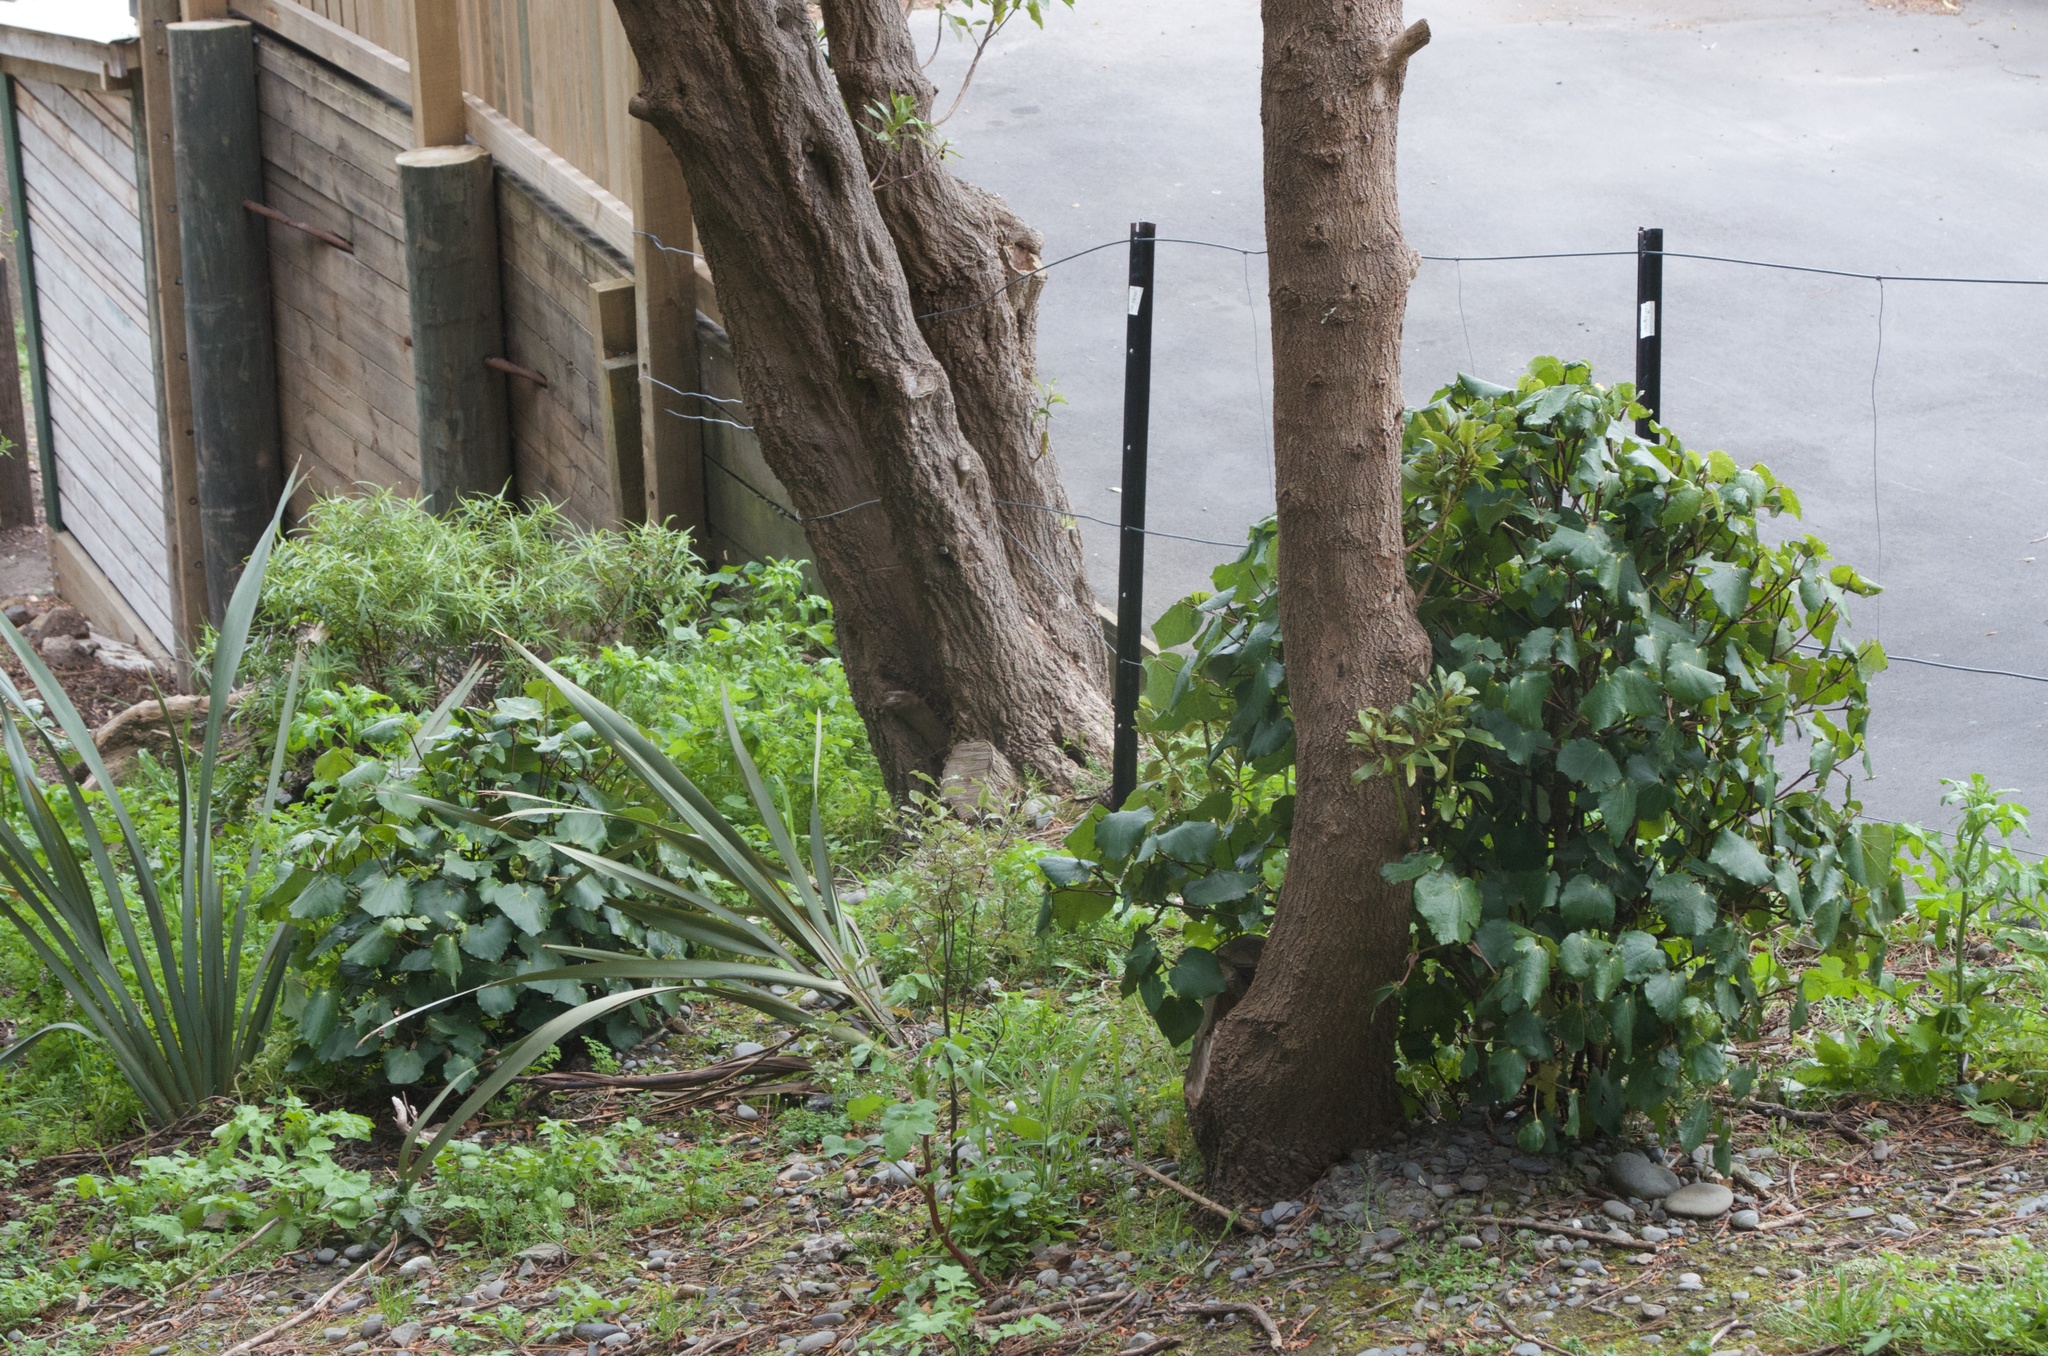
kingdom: Plantae
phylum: Tracheophyta
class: Magnoliopsida
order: Piperales
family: Piperaceae
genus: Macropiper
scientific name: Macropiper excelsum
